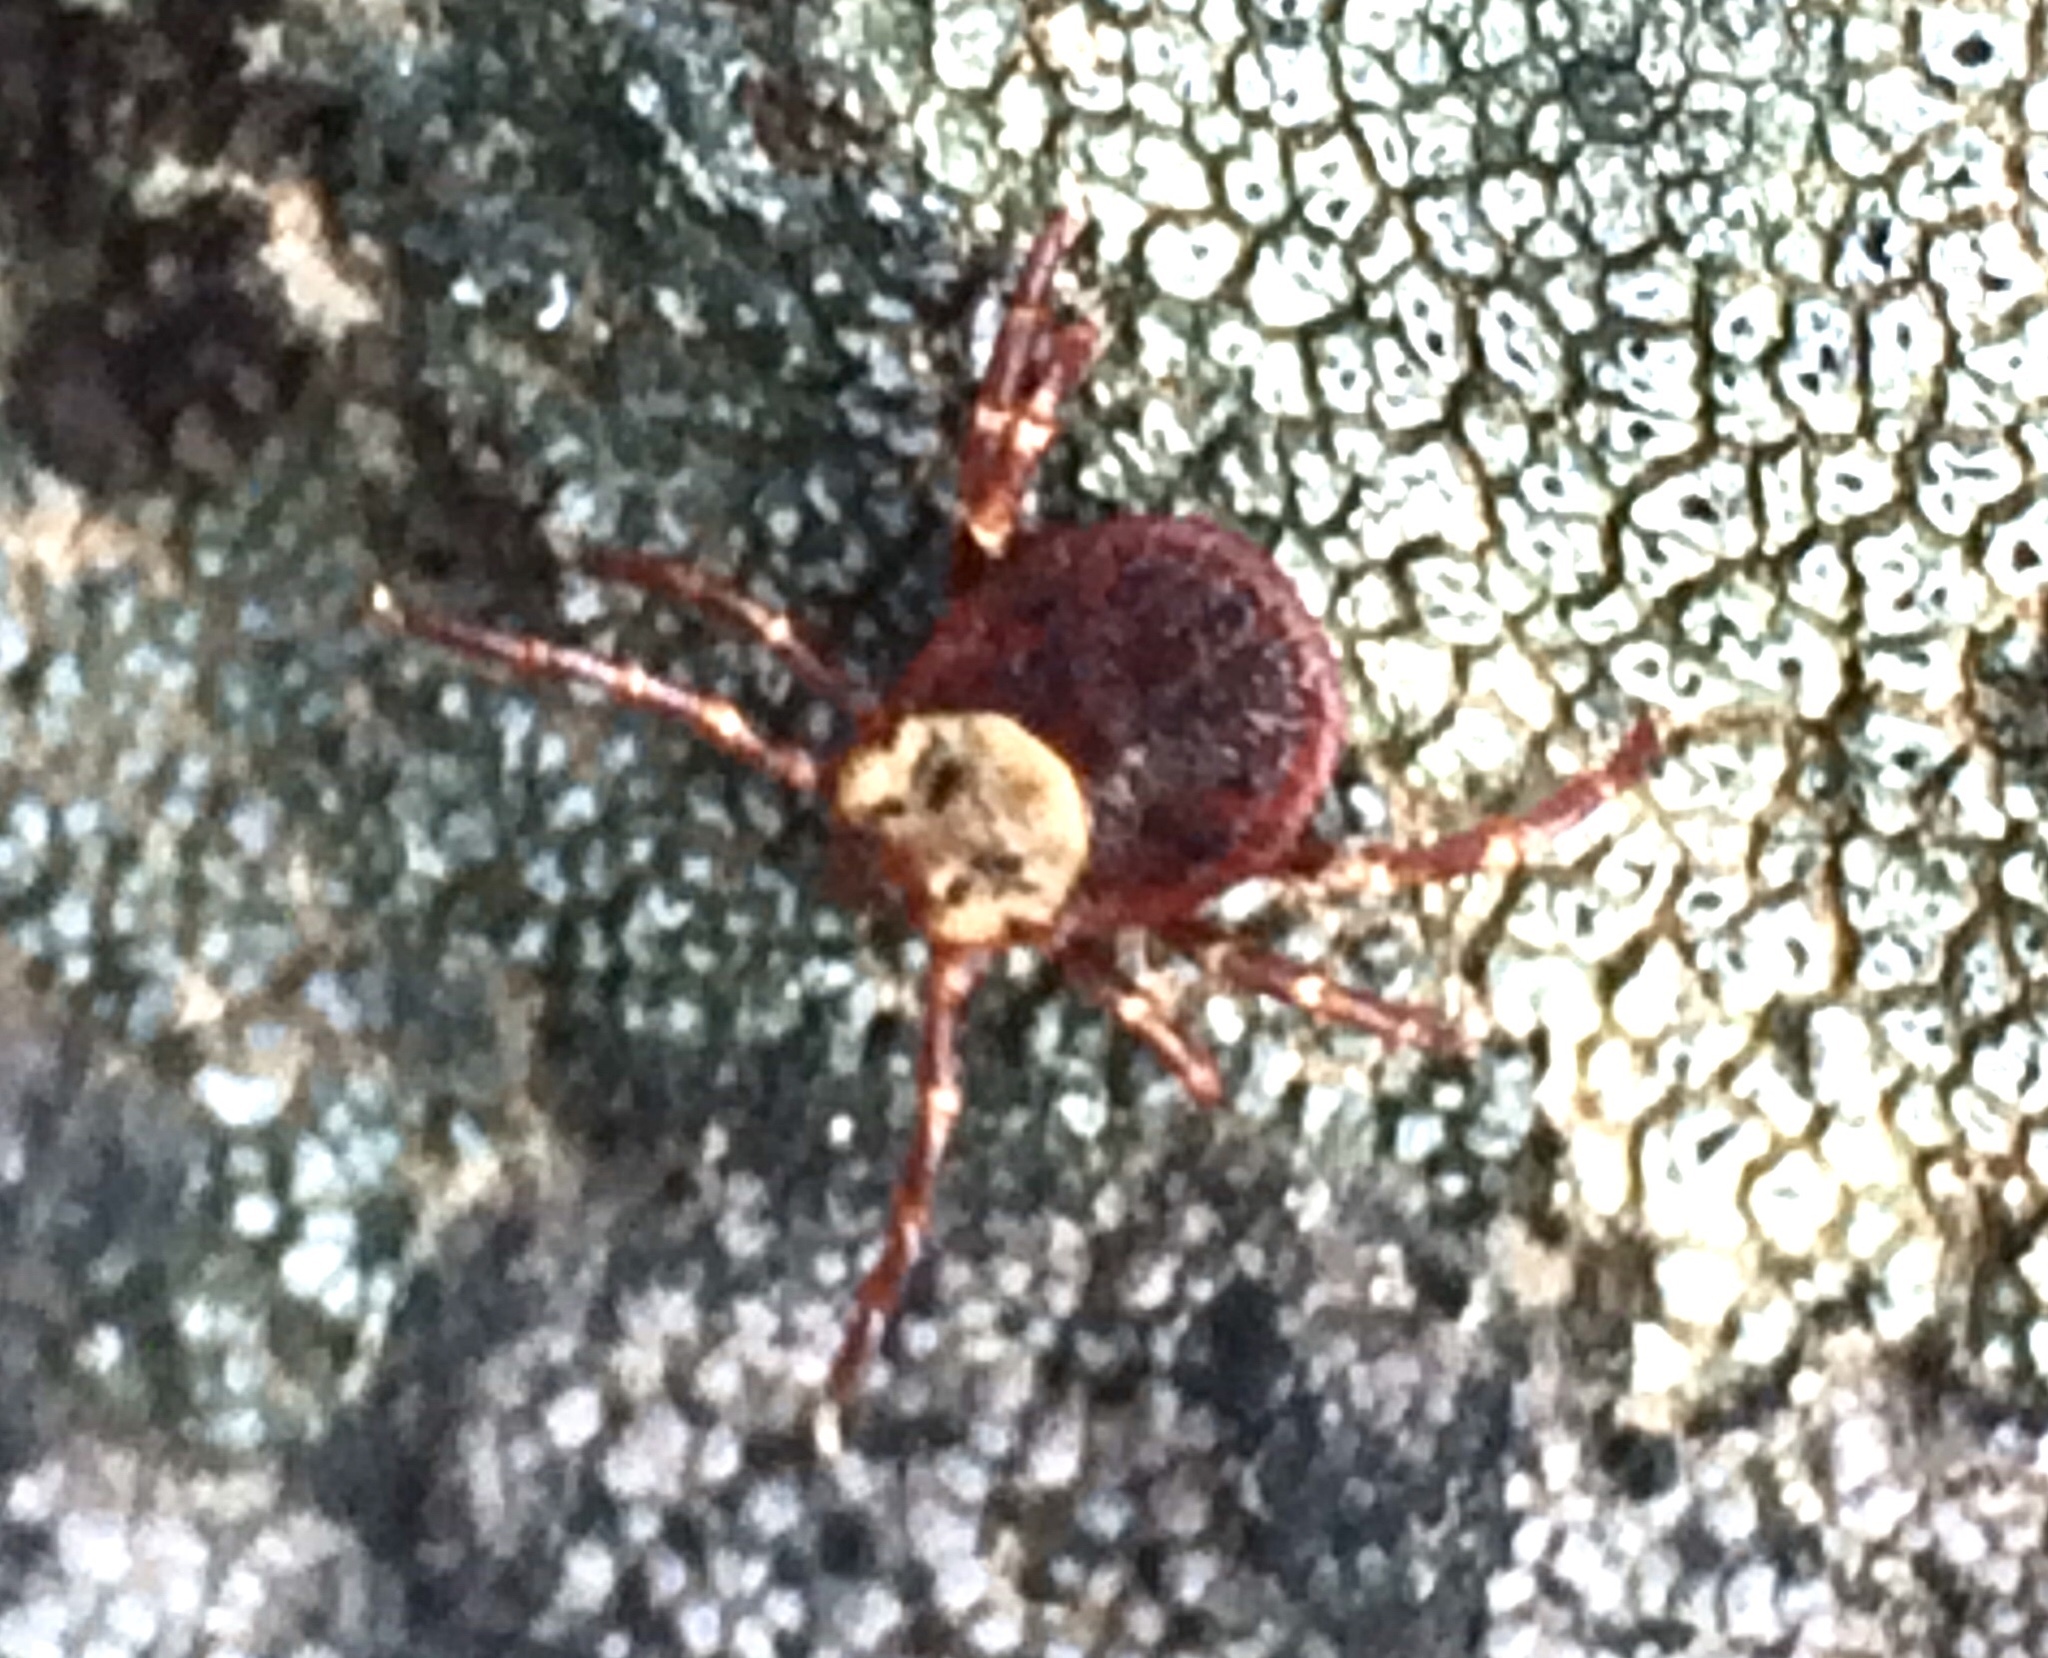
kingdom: Animalia
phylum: Arthropoda
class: Arachnida
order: Ixodida
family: Ixodidae
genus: Dermacentor
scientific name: Dermacentor andersoni
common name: Rocky mountain wood tick
